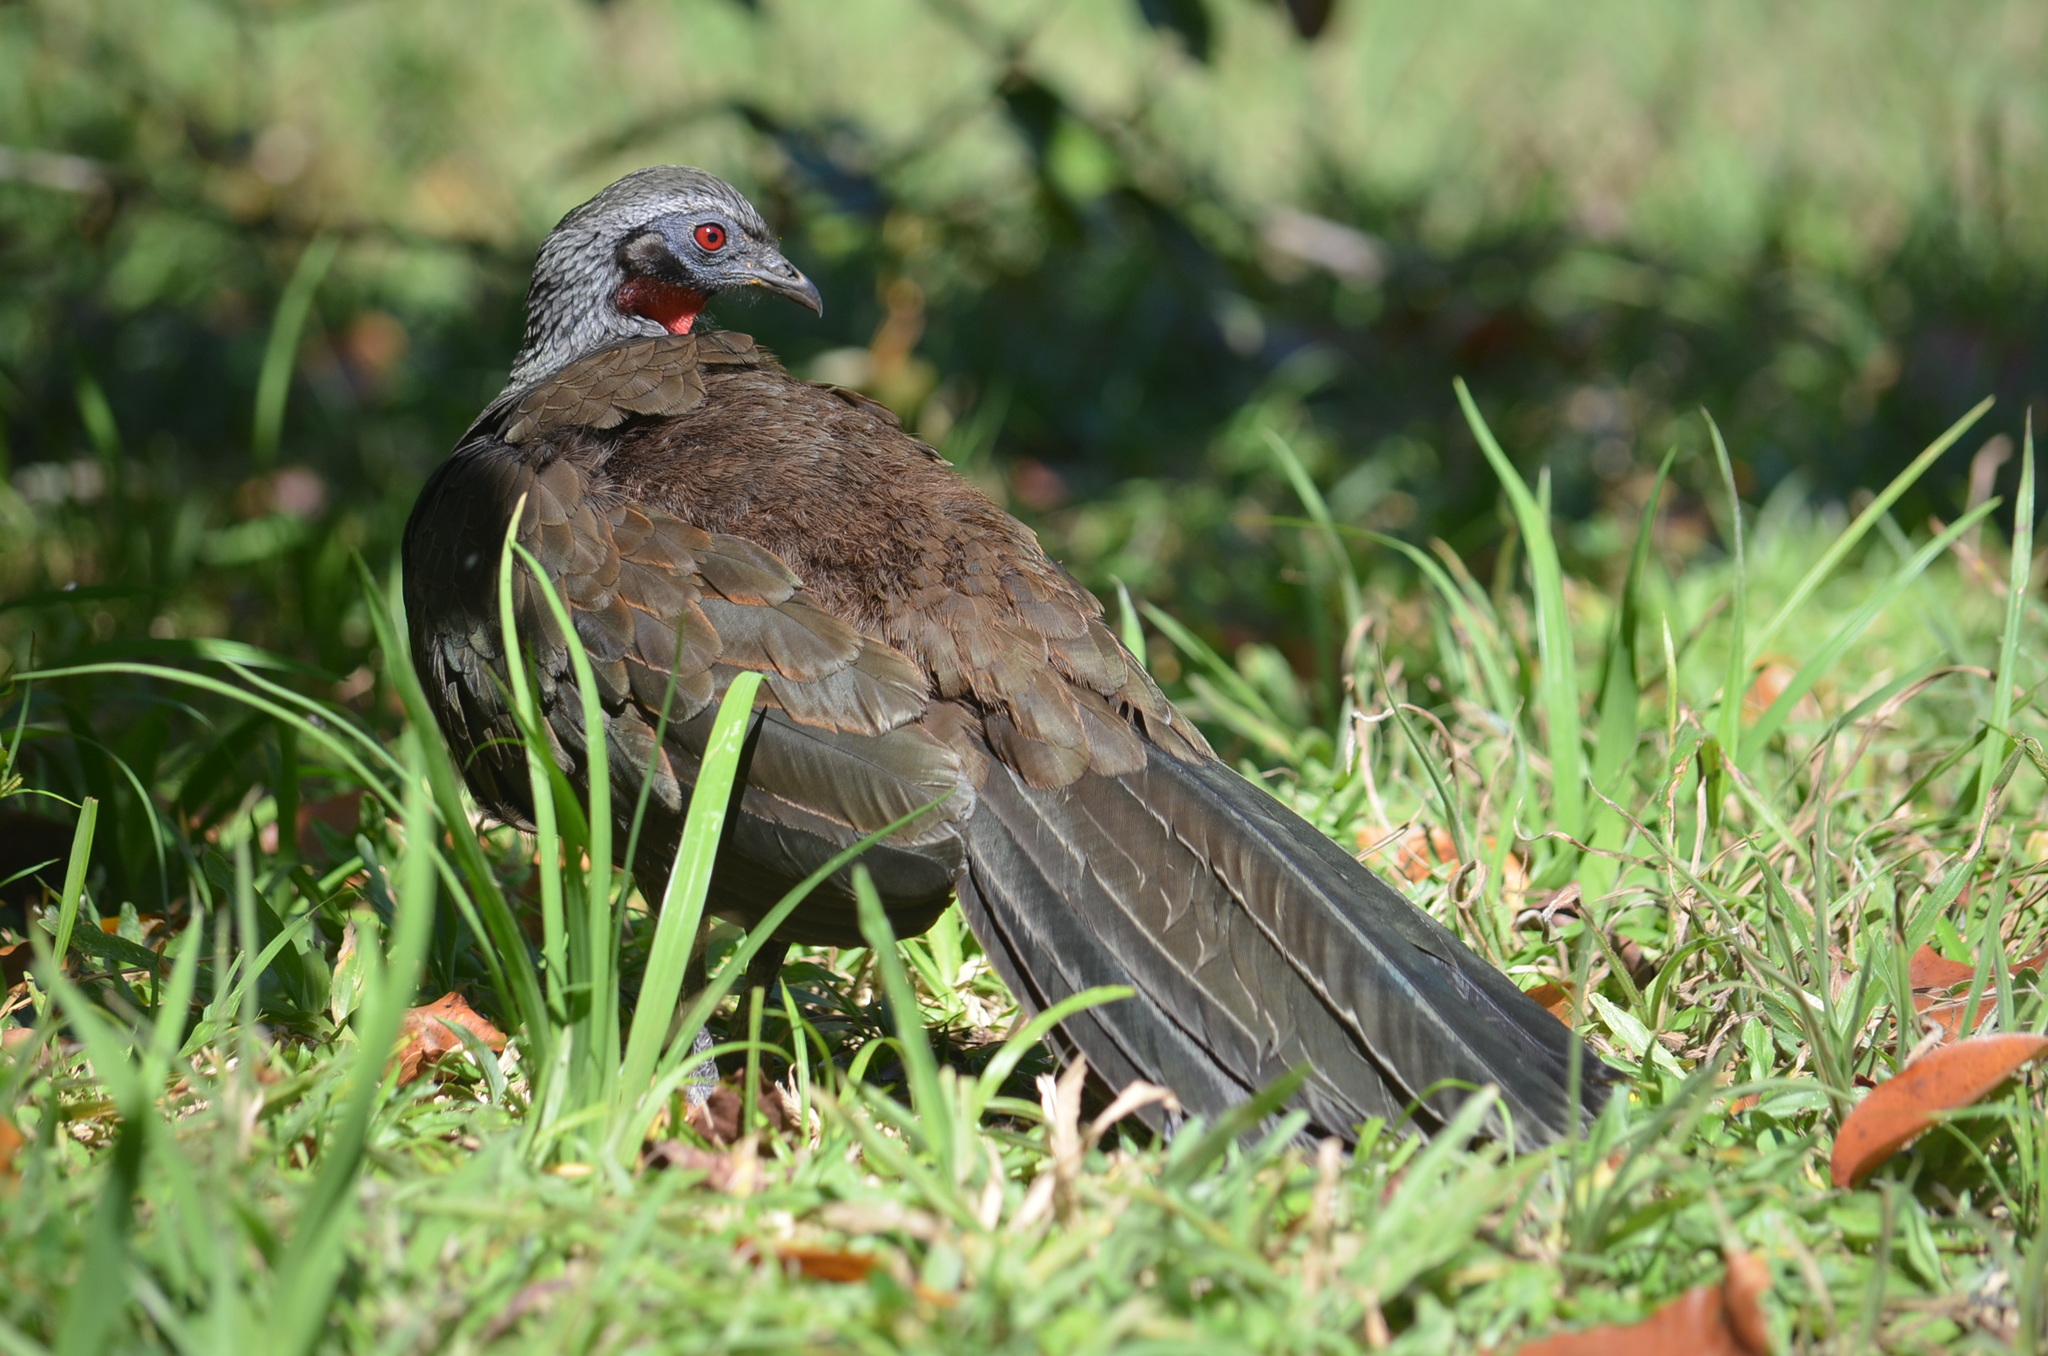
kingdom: Animalia
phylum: Chordata
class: Aves
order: Galliformes
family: Cracidae
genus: Penelope
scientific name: Penelope superciliaris
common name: Rusty-margined guan
